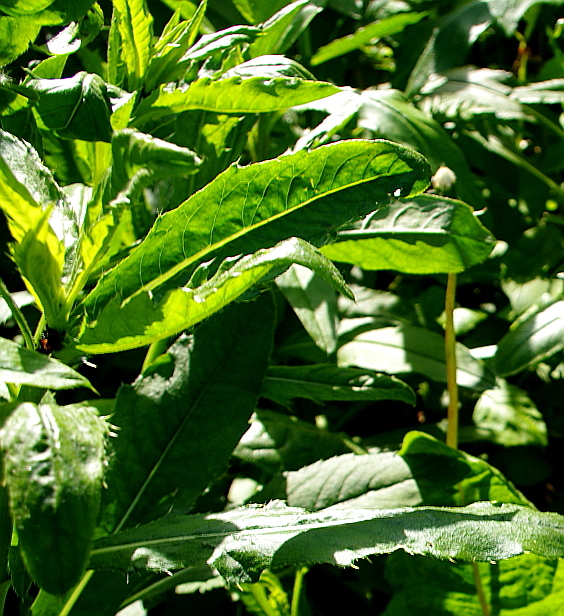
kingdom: Plantae
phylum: Tracheophyta
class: Magnoliopsida
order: Asterales
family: Asteraceae
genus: Cirsium
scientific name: Cirsium arvense
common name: Creeping thistle
